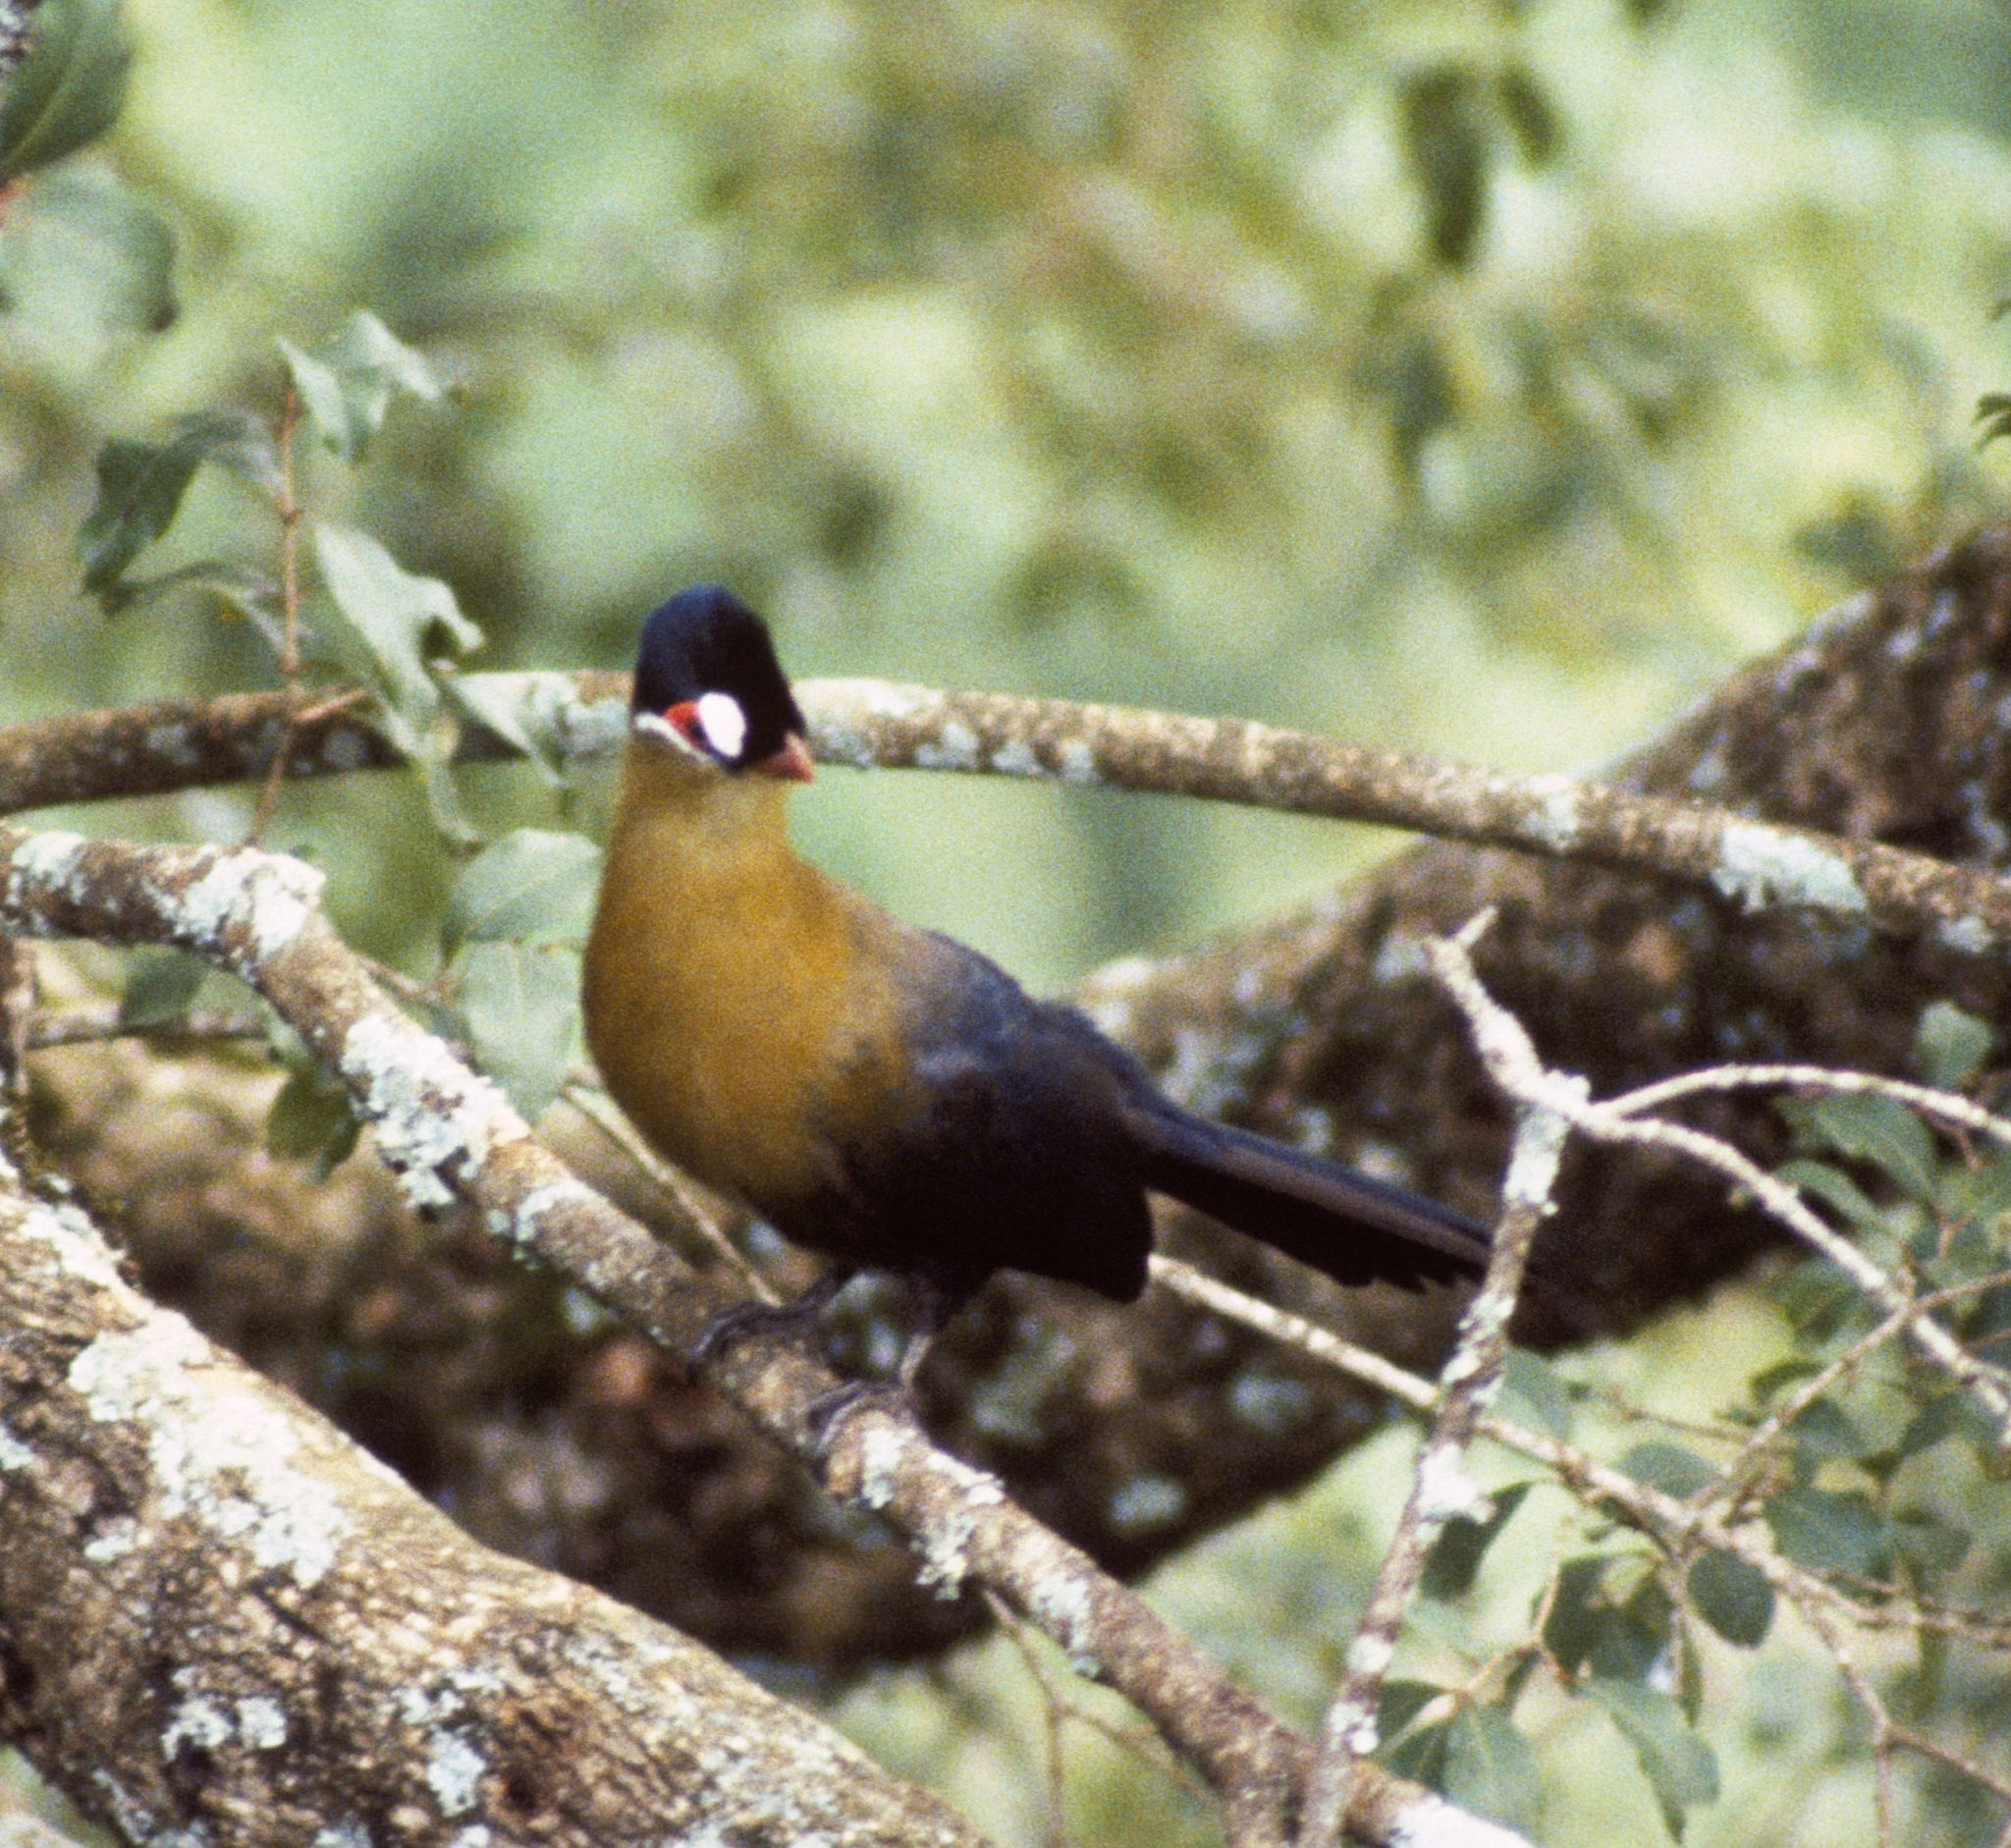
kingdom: Animalia
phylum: Chordata
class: Aves
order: Musophagiformes
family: Musophagidae
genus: Tauraco
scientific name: Tauraco hartlaubi
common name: Hartlaub's turaco
